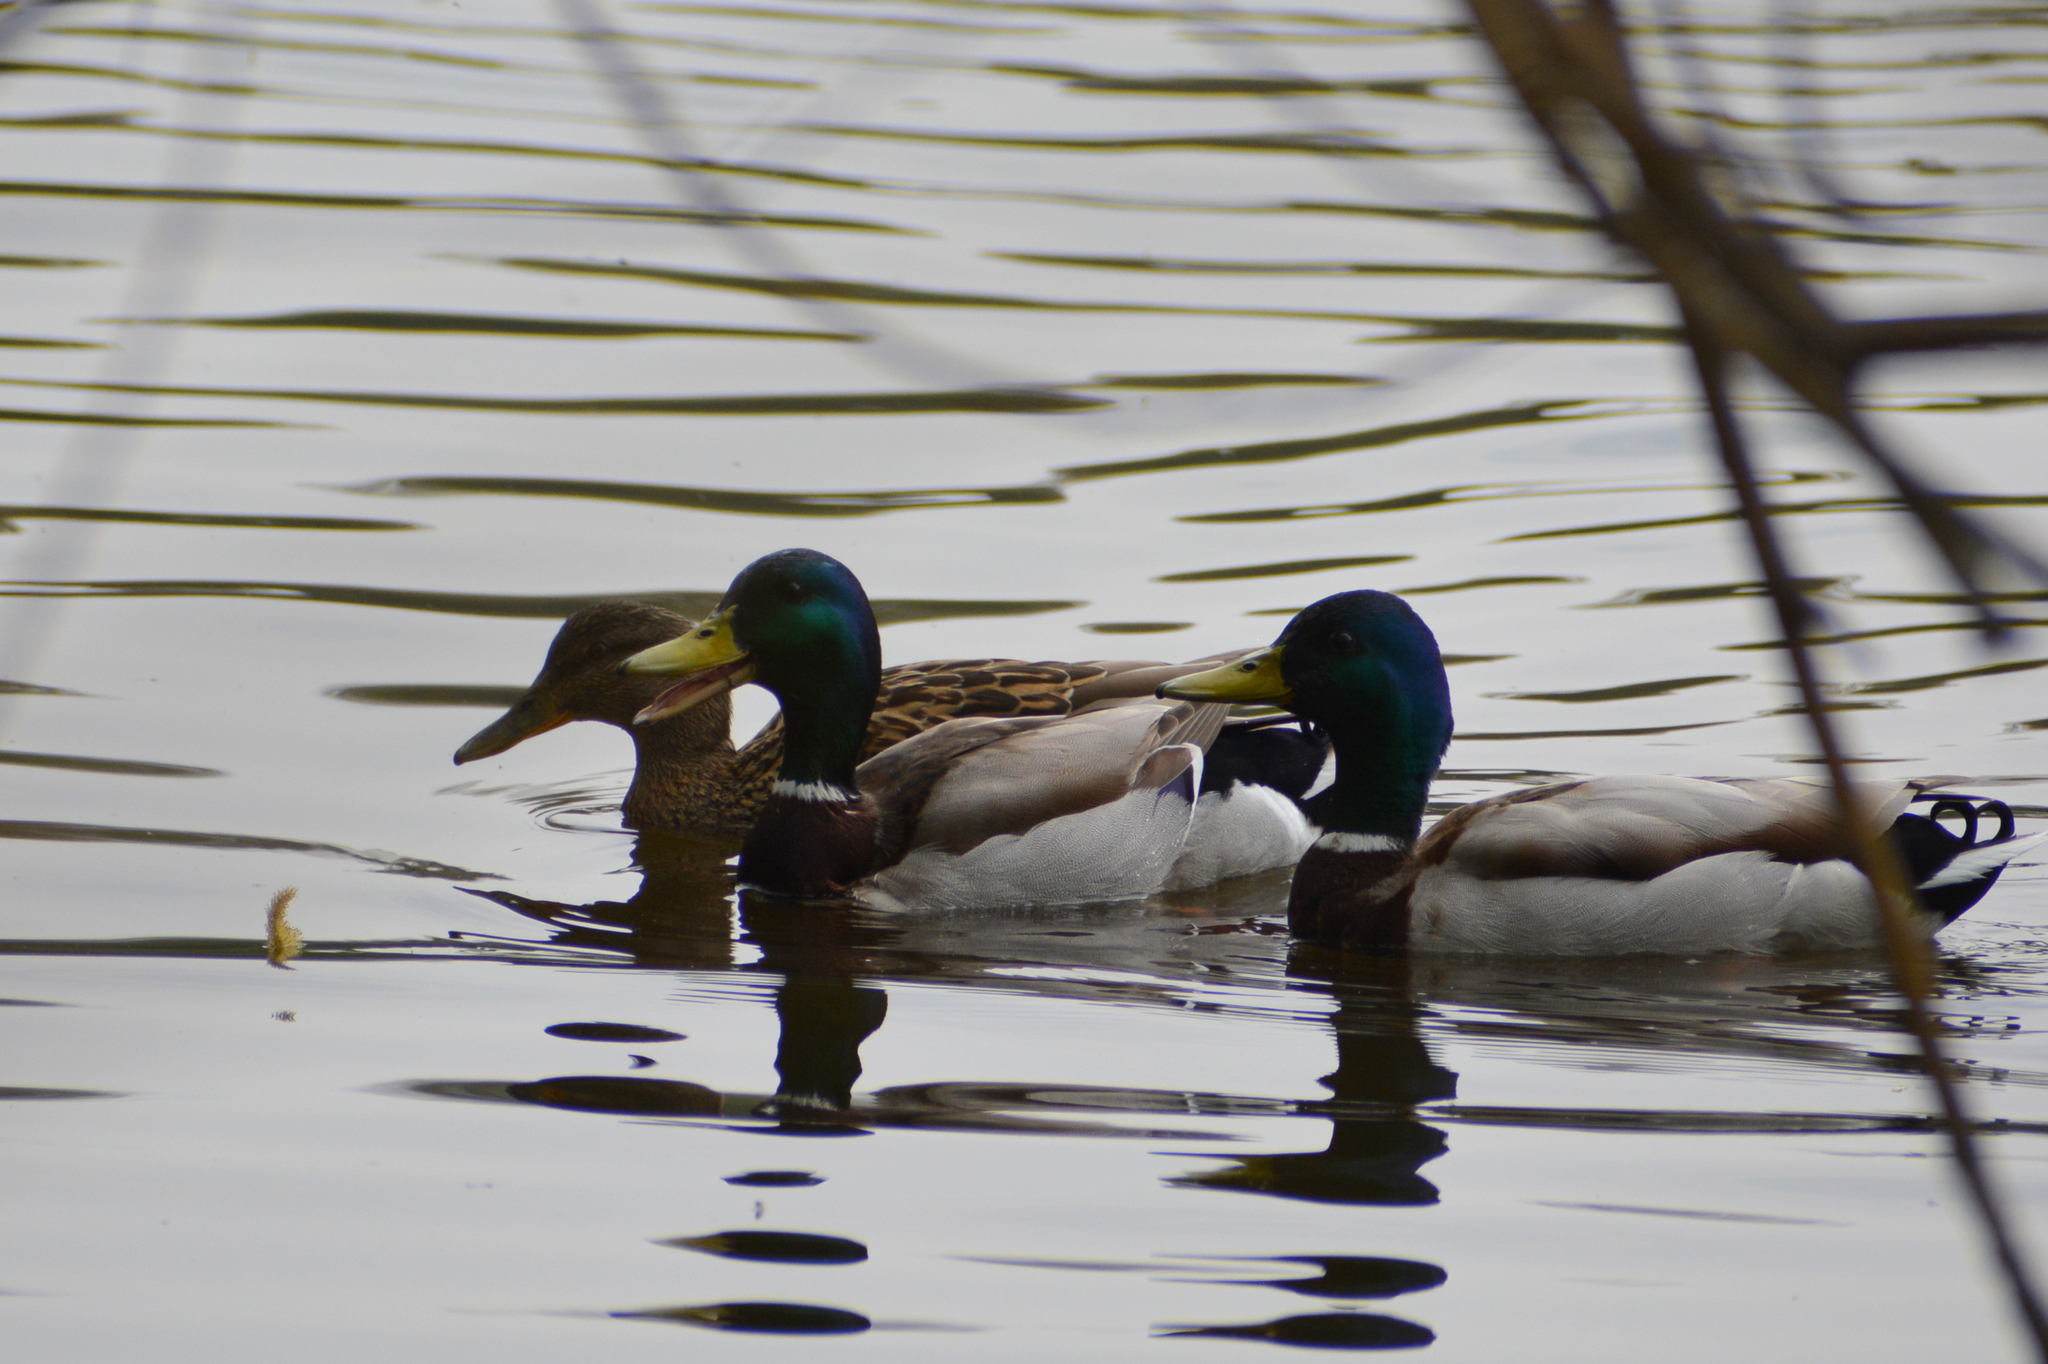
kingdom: Animalia
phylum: Chordata
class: Aves
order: Anseriformes
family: Anatidae
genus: Anas
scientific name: Anas platyrhynchos
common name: Mallard
